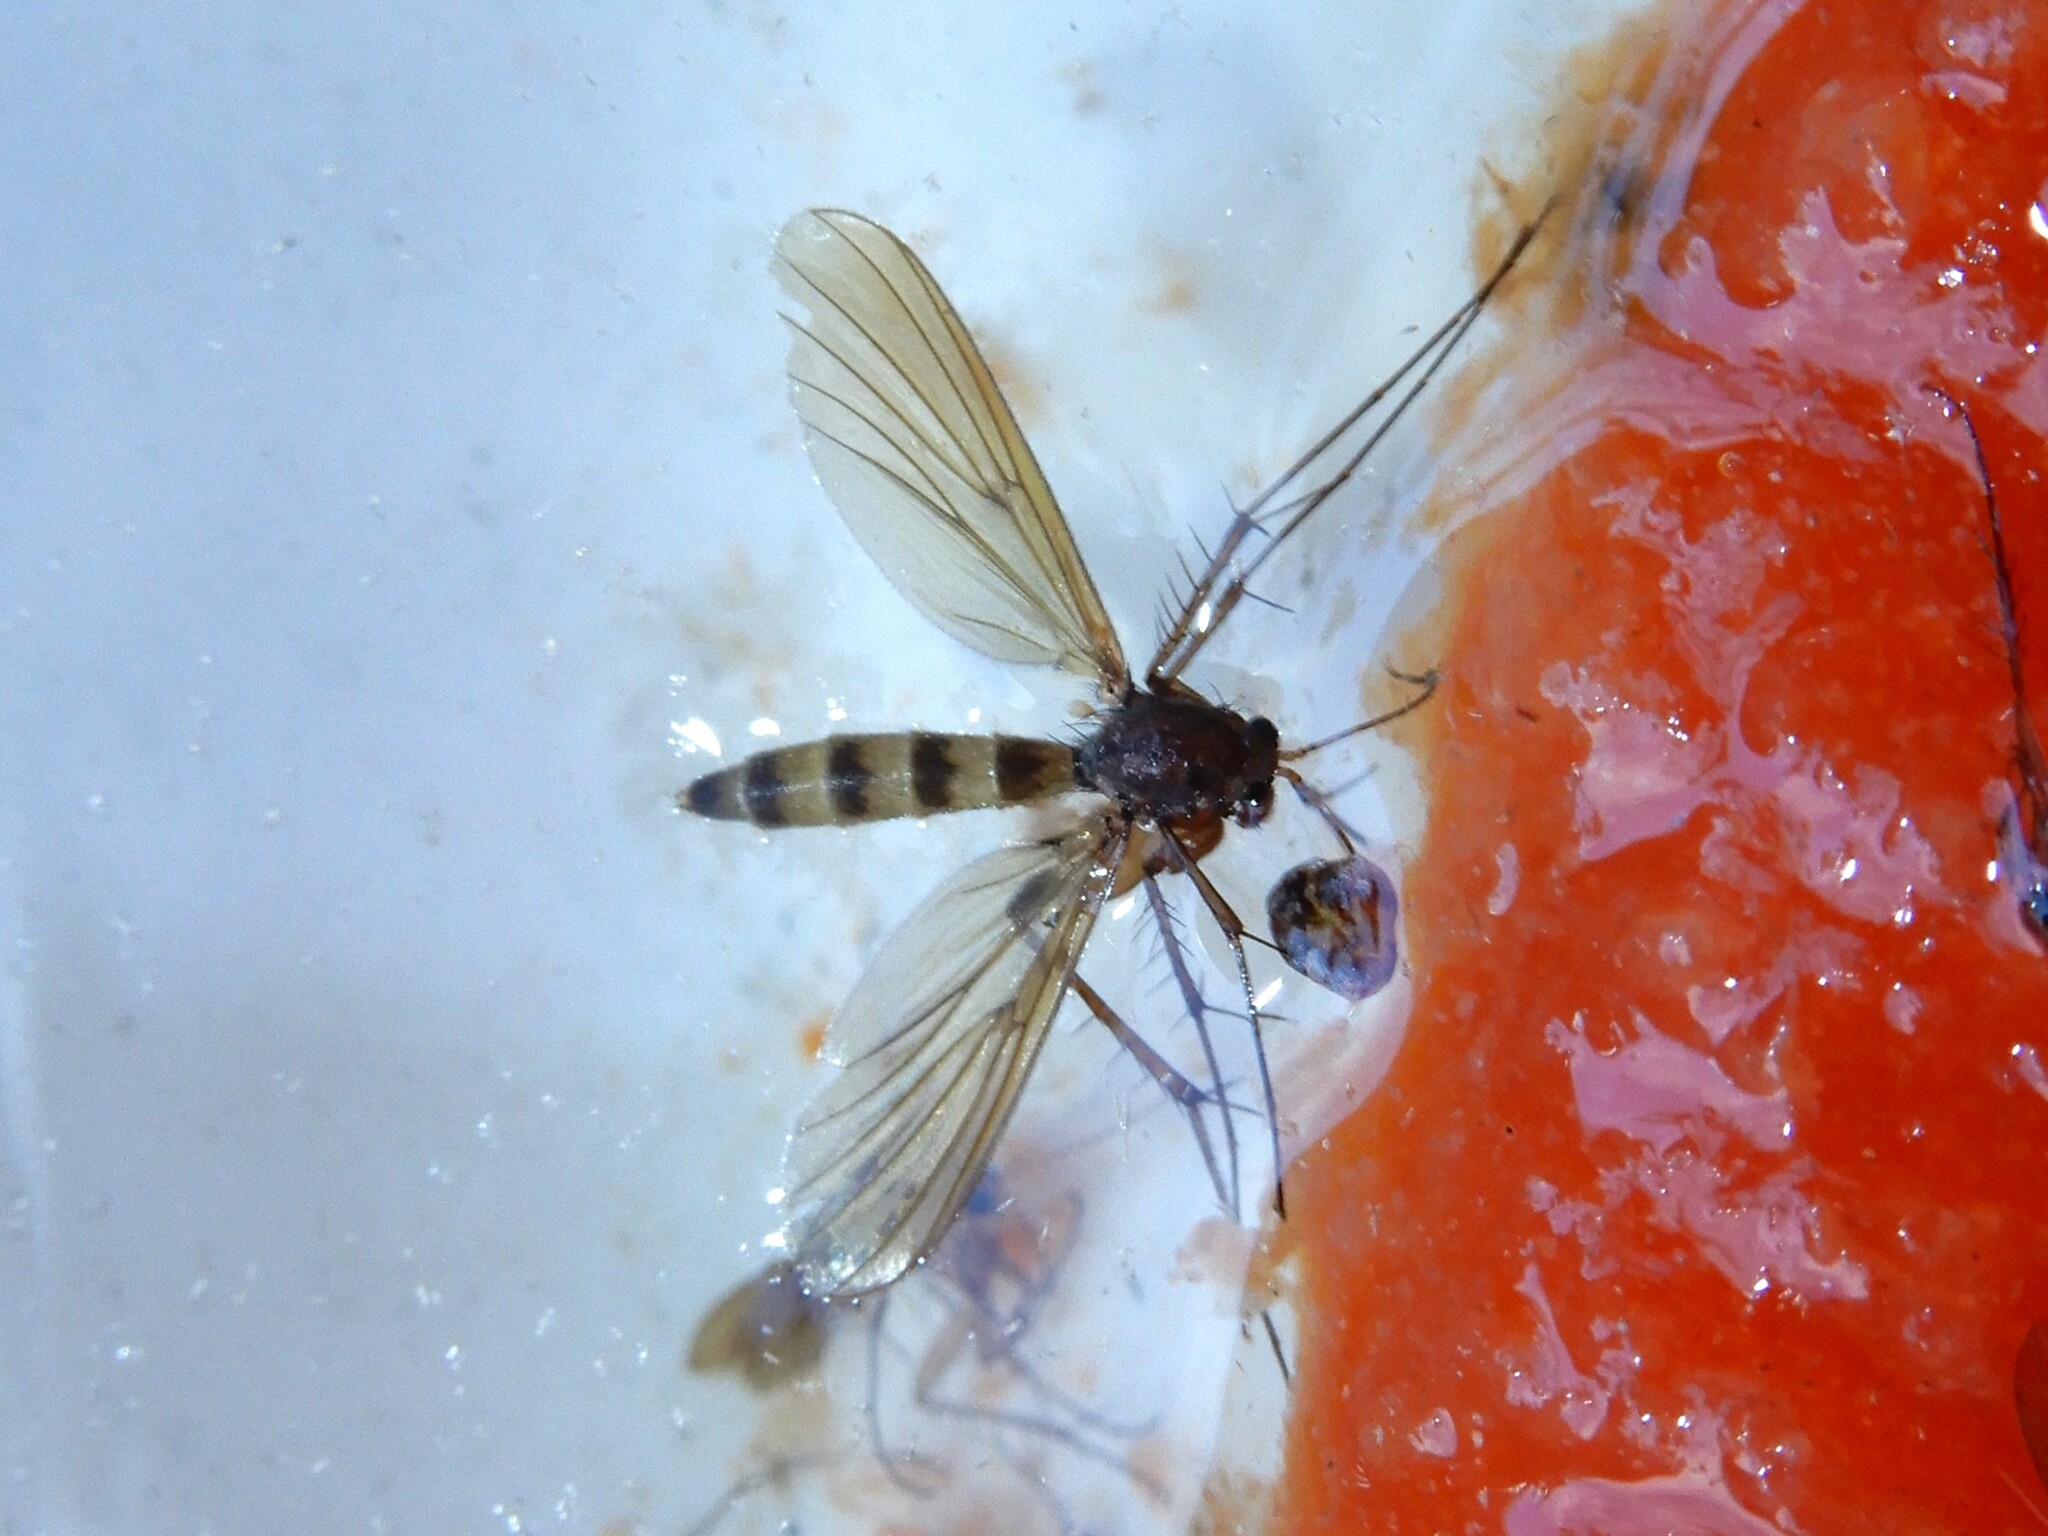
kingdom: Animalia
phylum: Arthropoda
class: Insecta
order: Diptera
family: Mycetophilidae
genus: Mycetophila
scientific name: Mycetophila grandis
